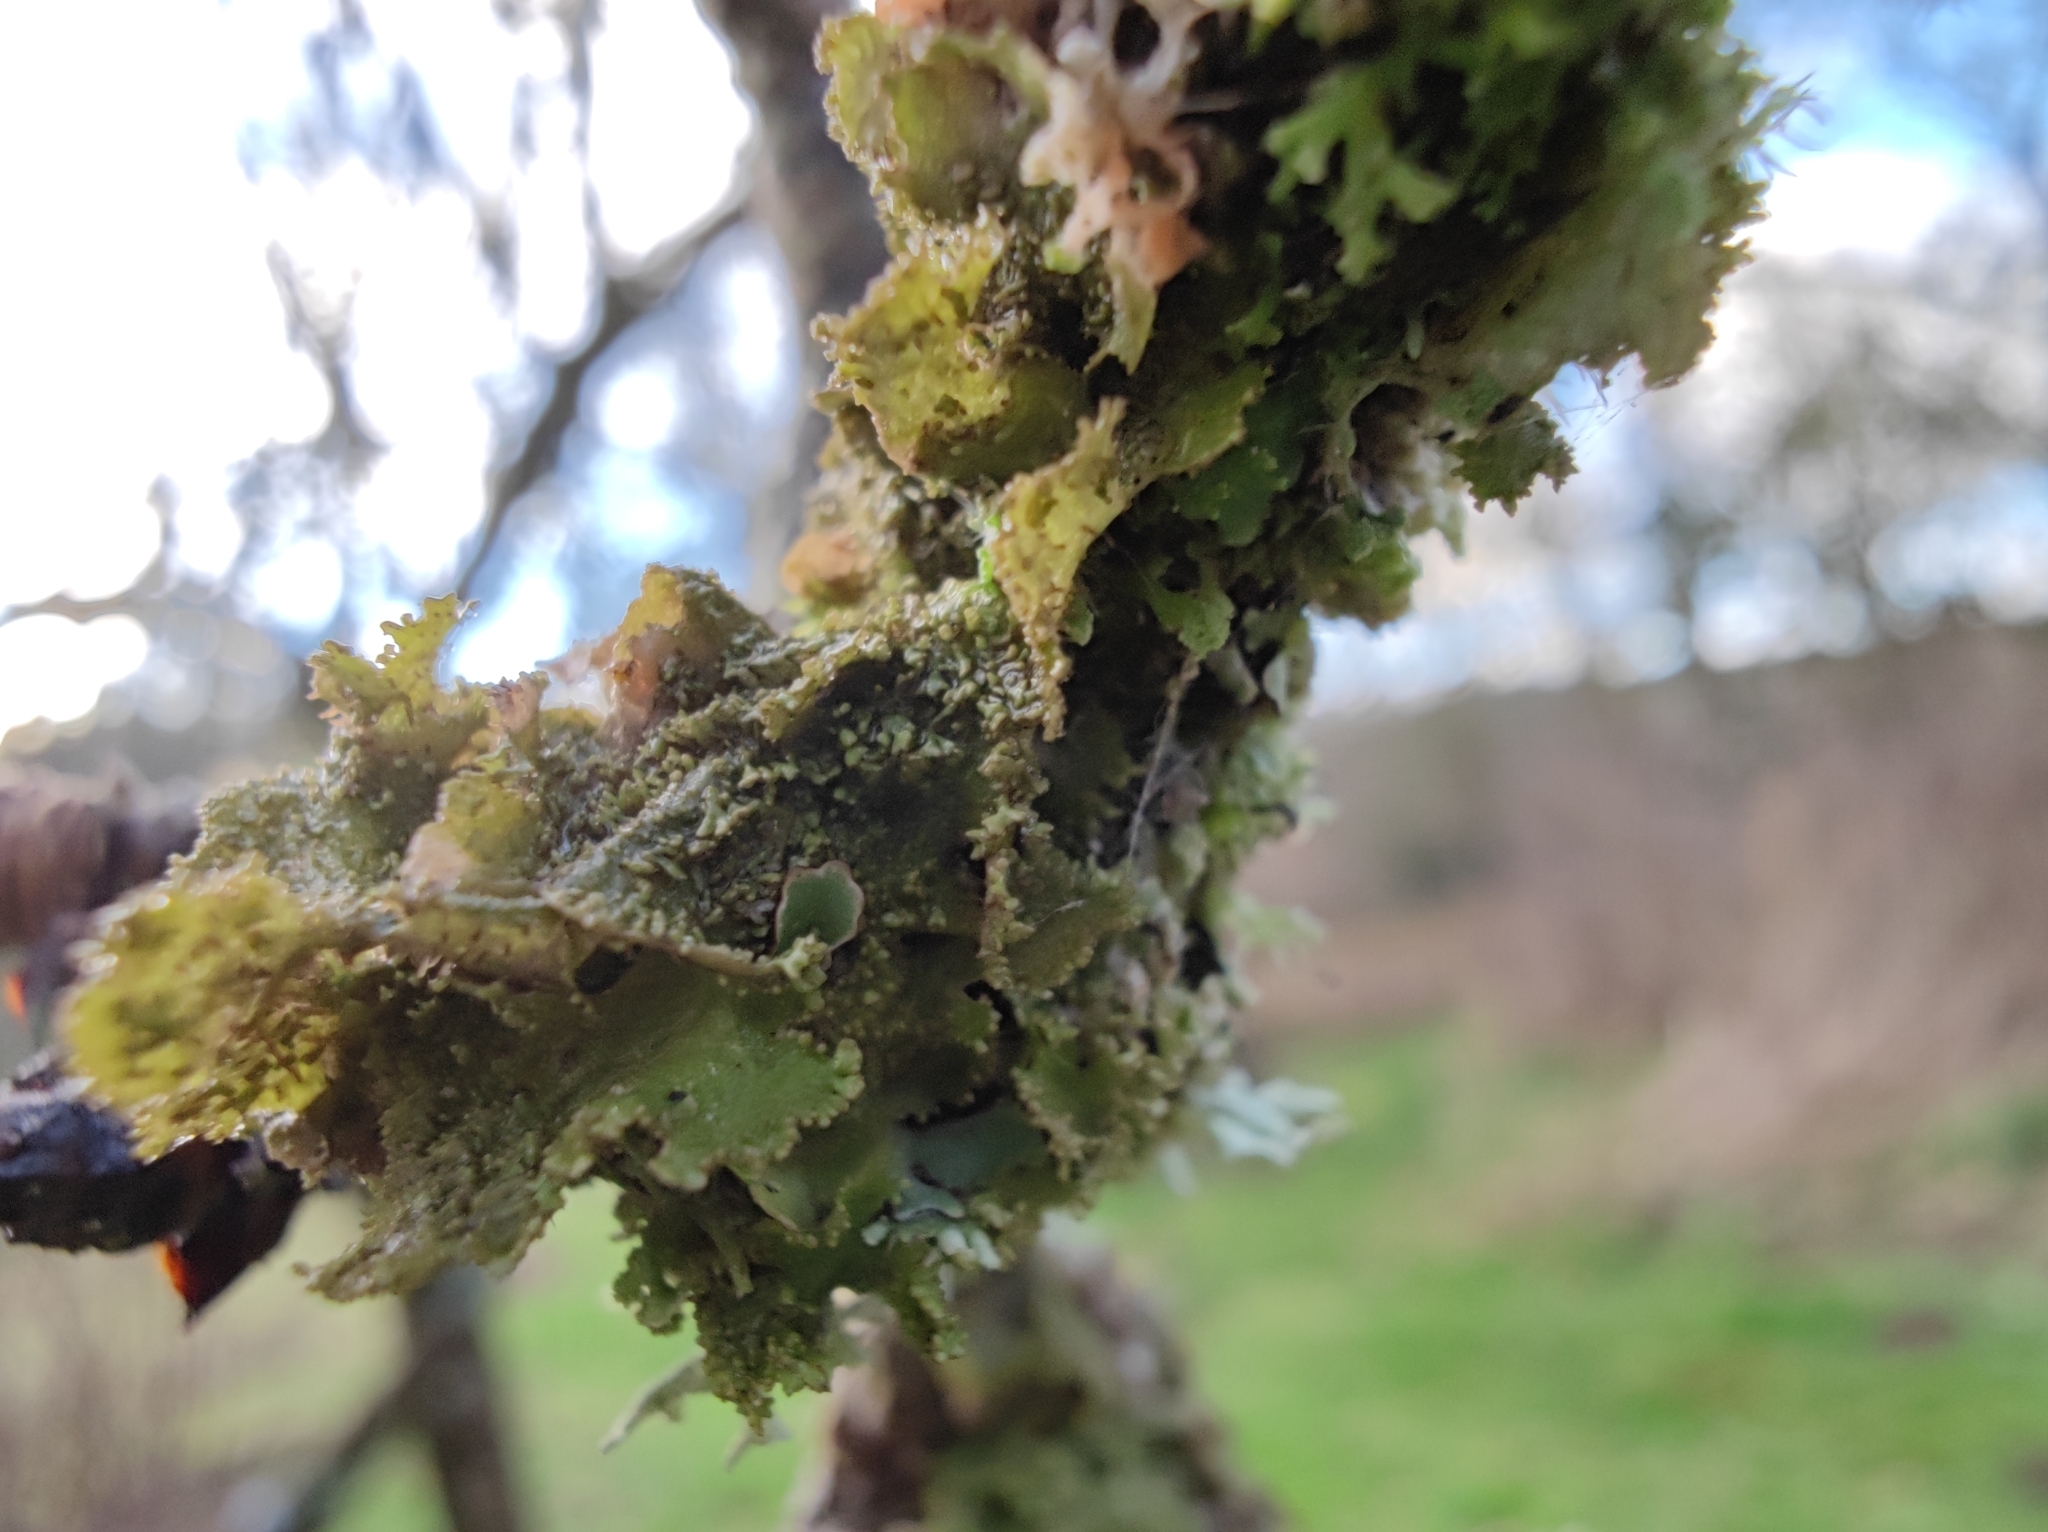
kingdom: Fungi
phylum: Ascomycota
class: Lecanoromycetes
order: Lecanorales
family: Parmeliaceae
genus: Melanohalea
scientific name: Melanohalea exasperatula
